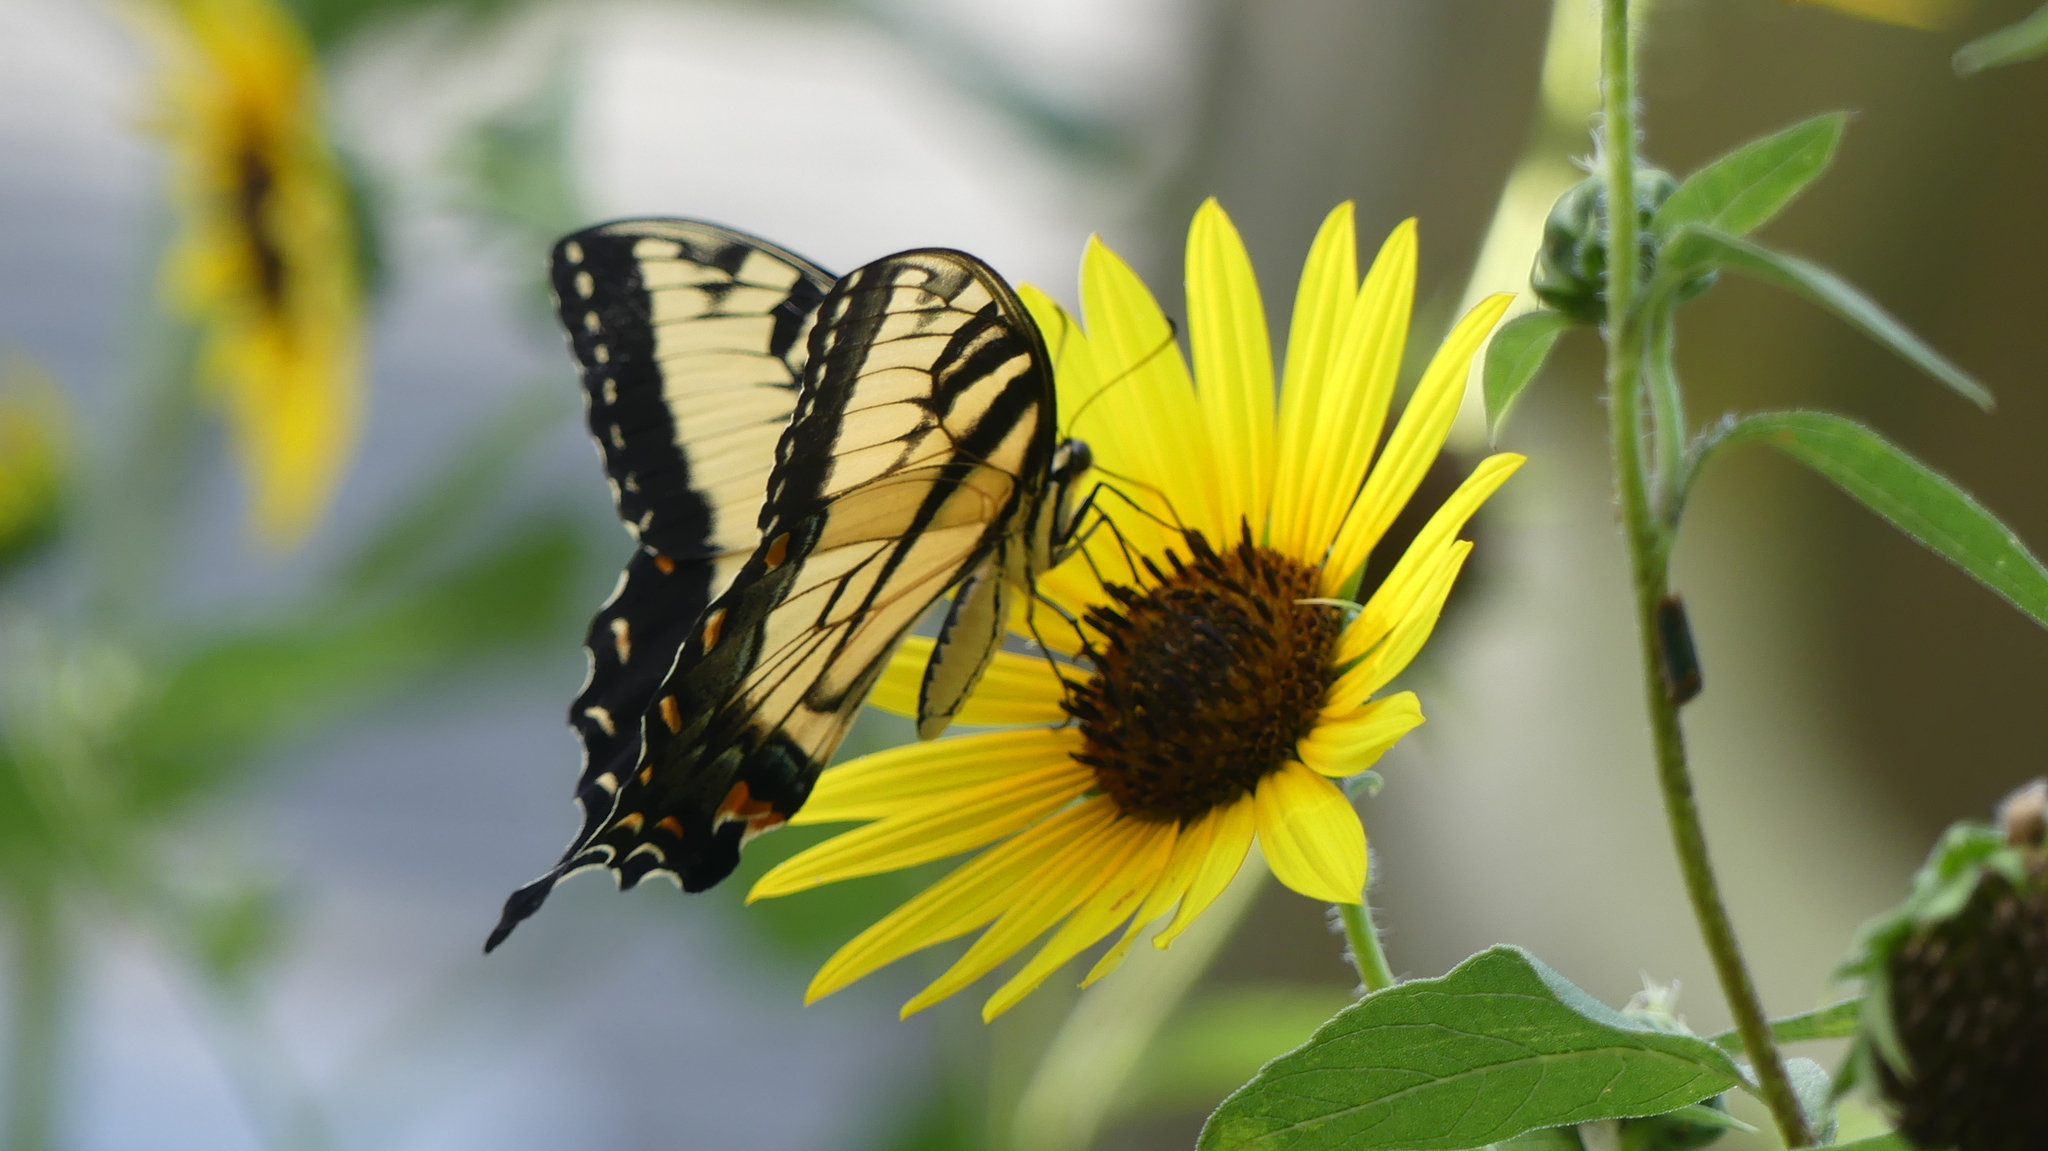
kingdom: Animalia
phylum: Arthropoda
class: Insecta
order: Lepidoptera
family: Papilionidae
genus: Papilio
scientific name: Papilio glaucus
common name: Tiger swallowtail
